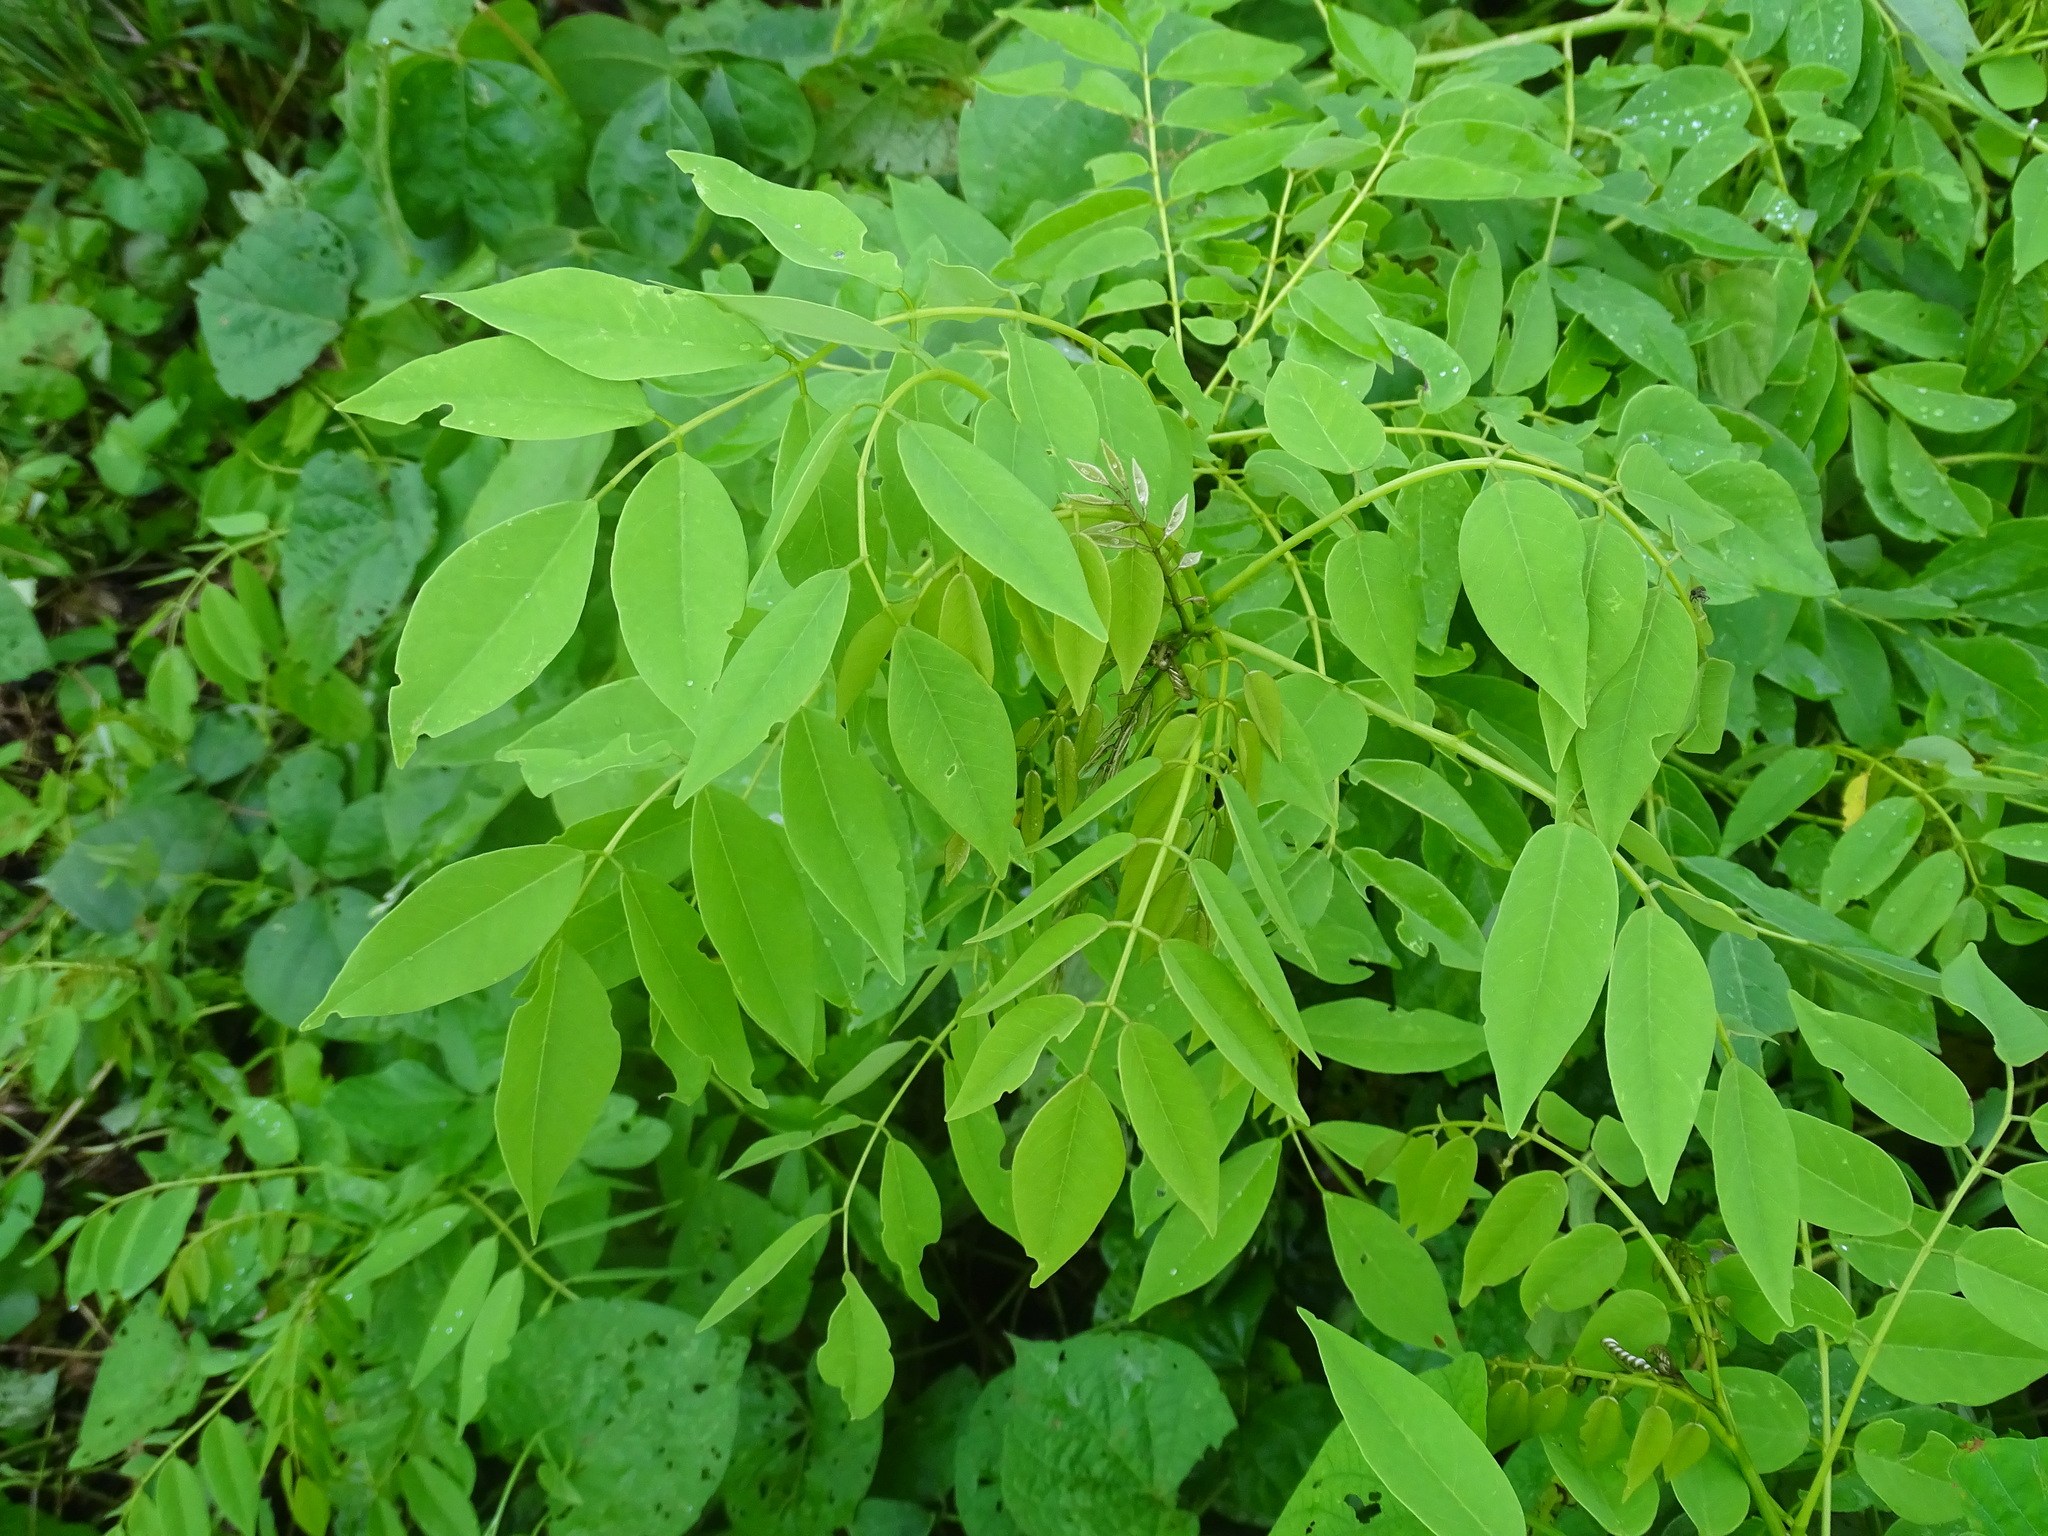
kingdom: Plantae
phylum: Tracheophyta
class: Magnoliopsida
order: Fabales
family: Fabaceae
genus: Gliricidia
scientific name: Gliricidia sepium
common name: Quickstick
